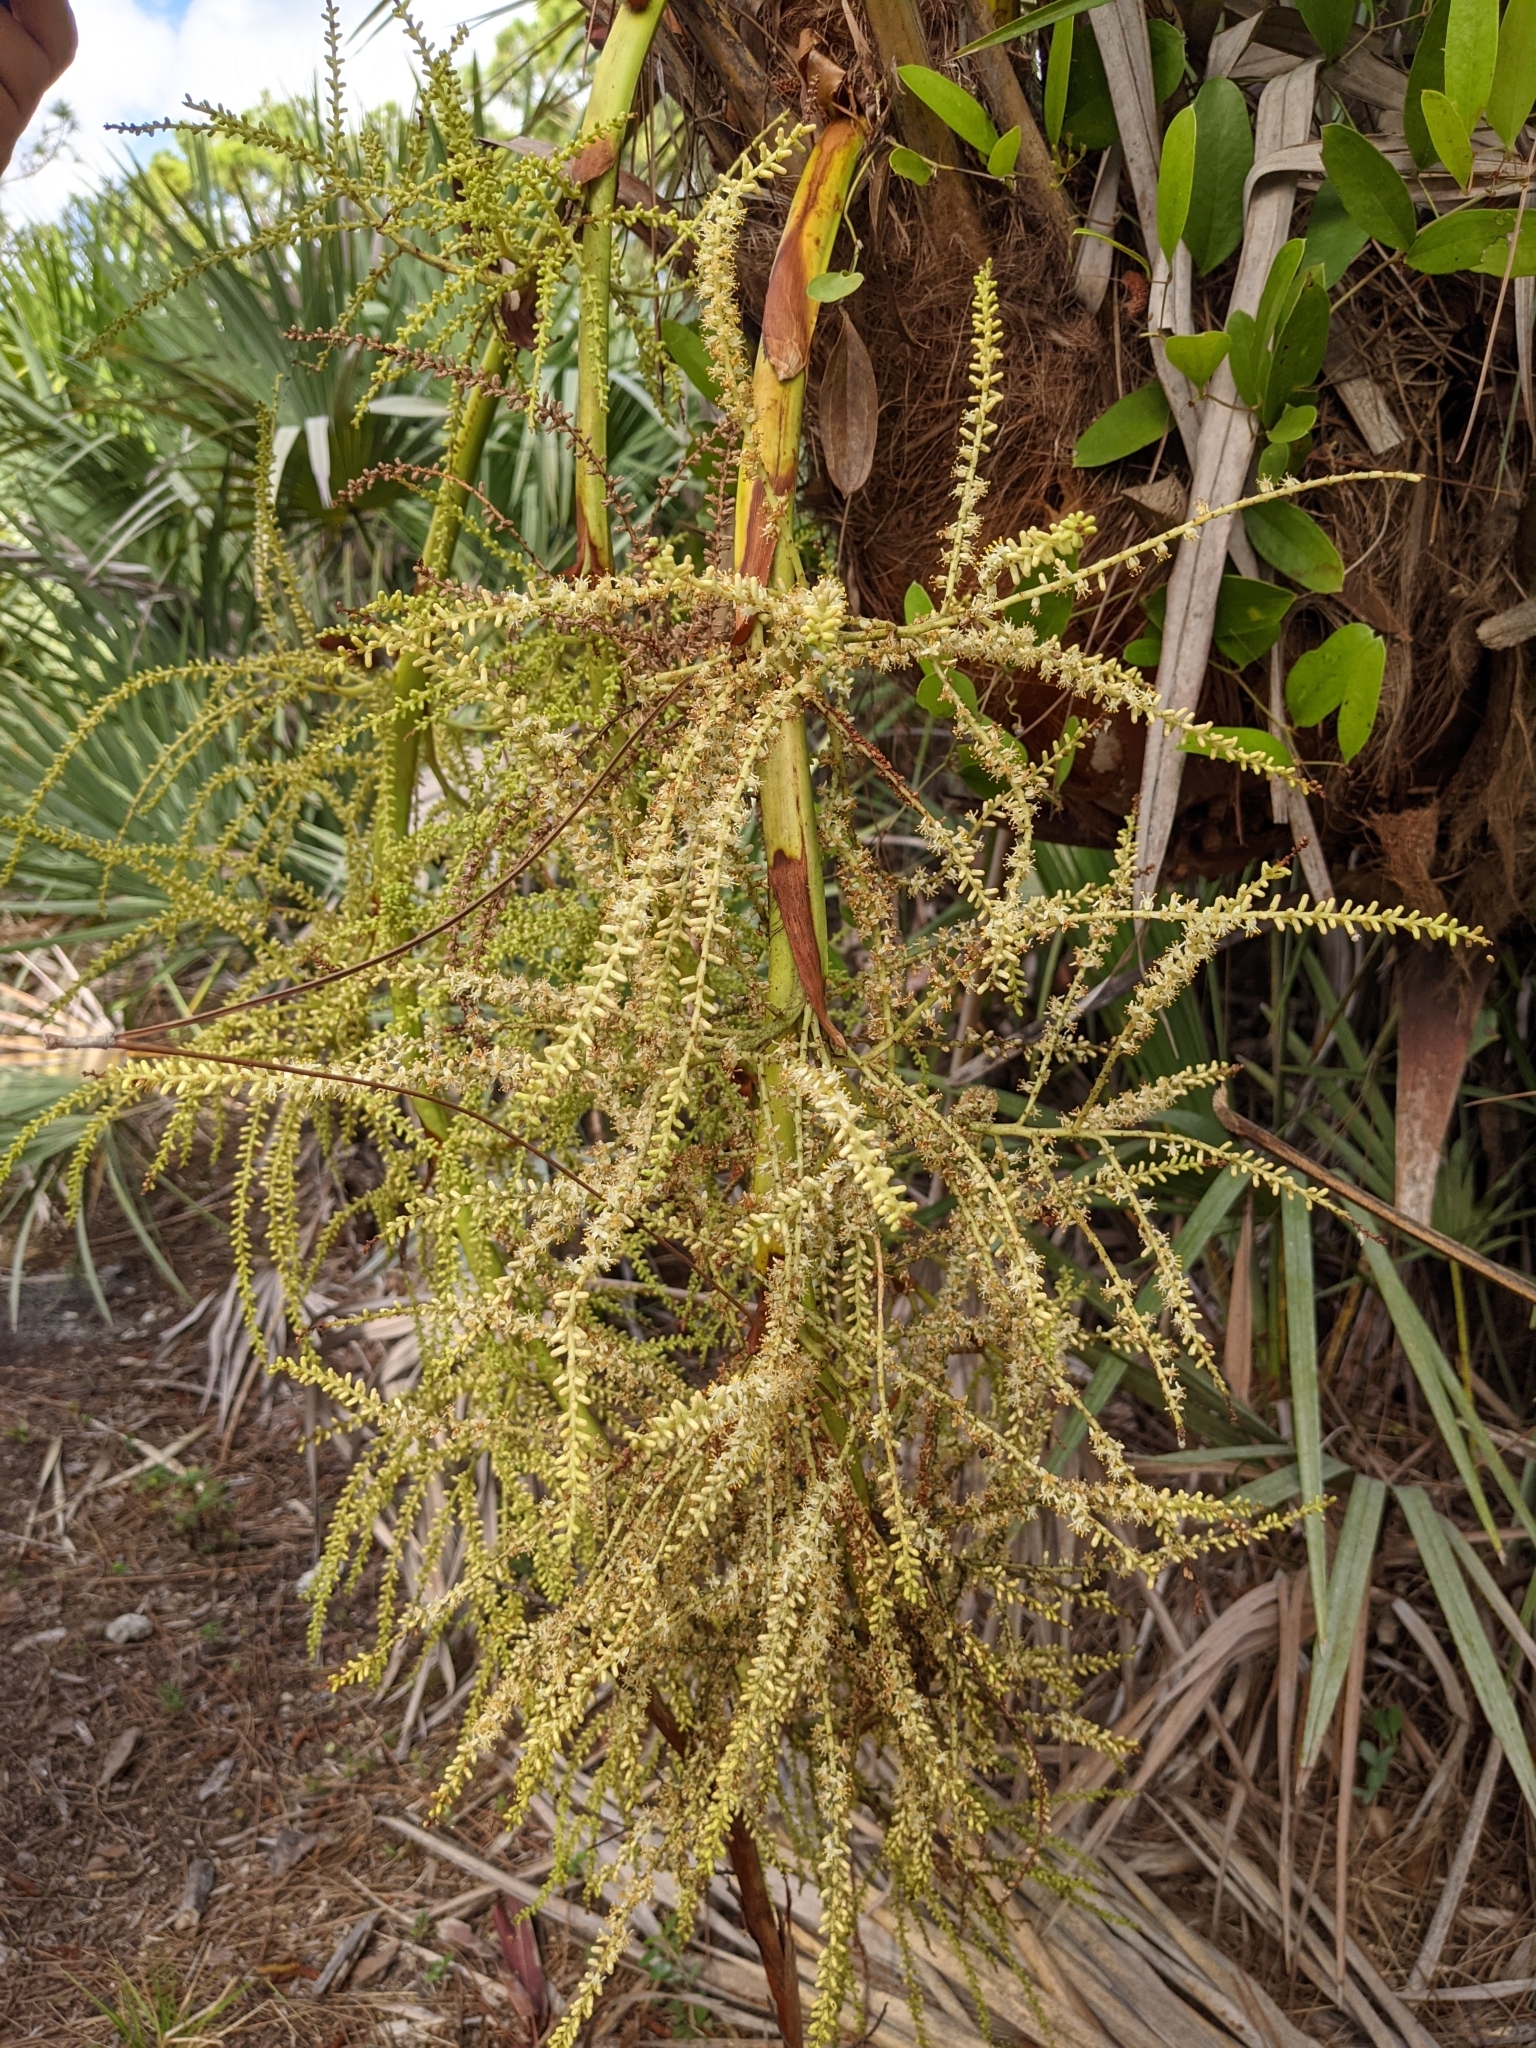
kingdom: Plantae
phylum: Tracheophyta
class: Liliopsida
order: Arecales
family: Arecaceae
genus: Serenoa
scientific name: Serenoa repens
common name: Saw-palmetto
